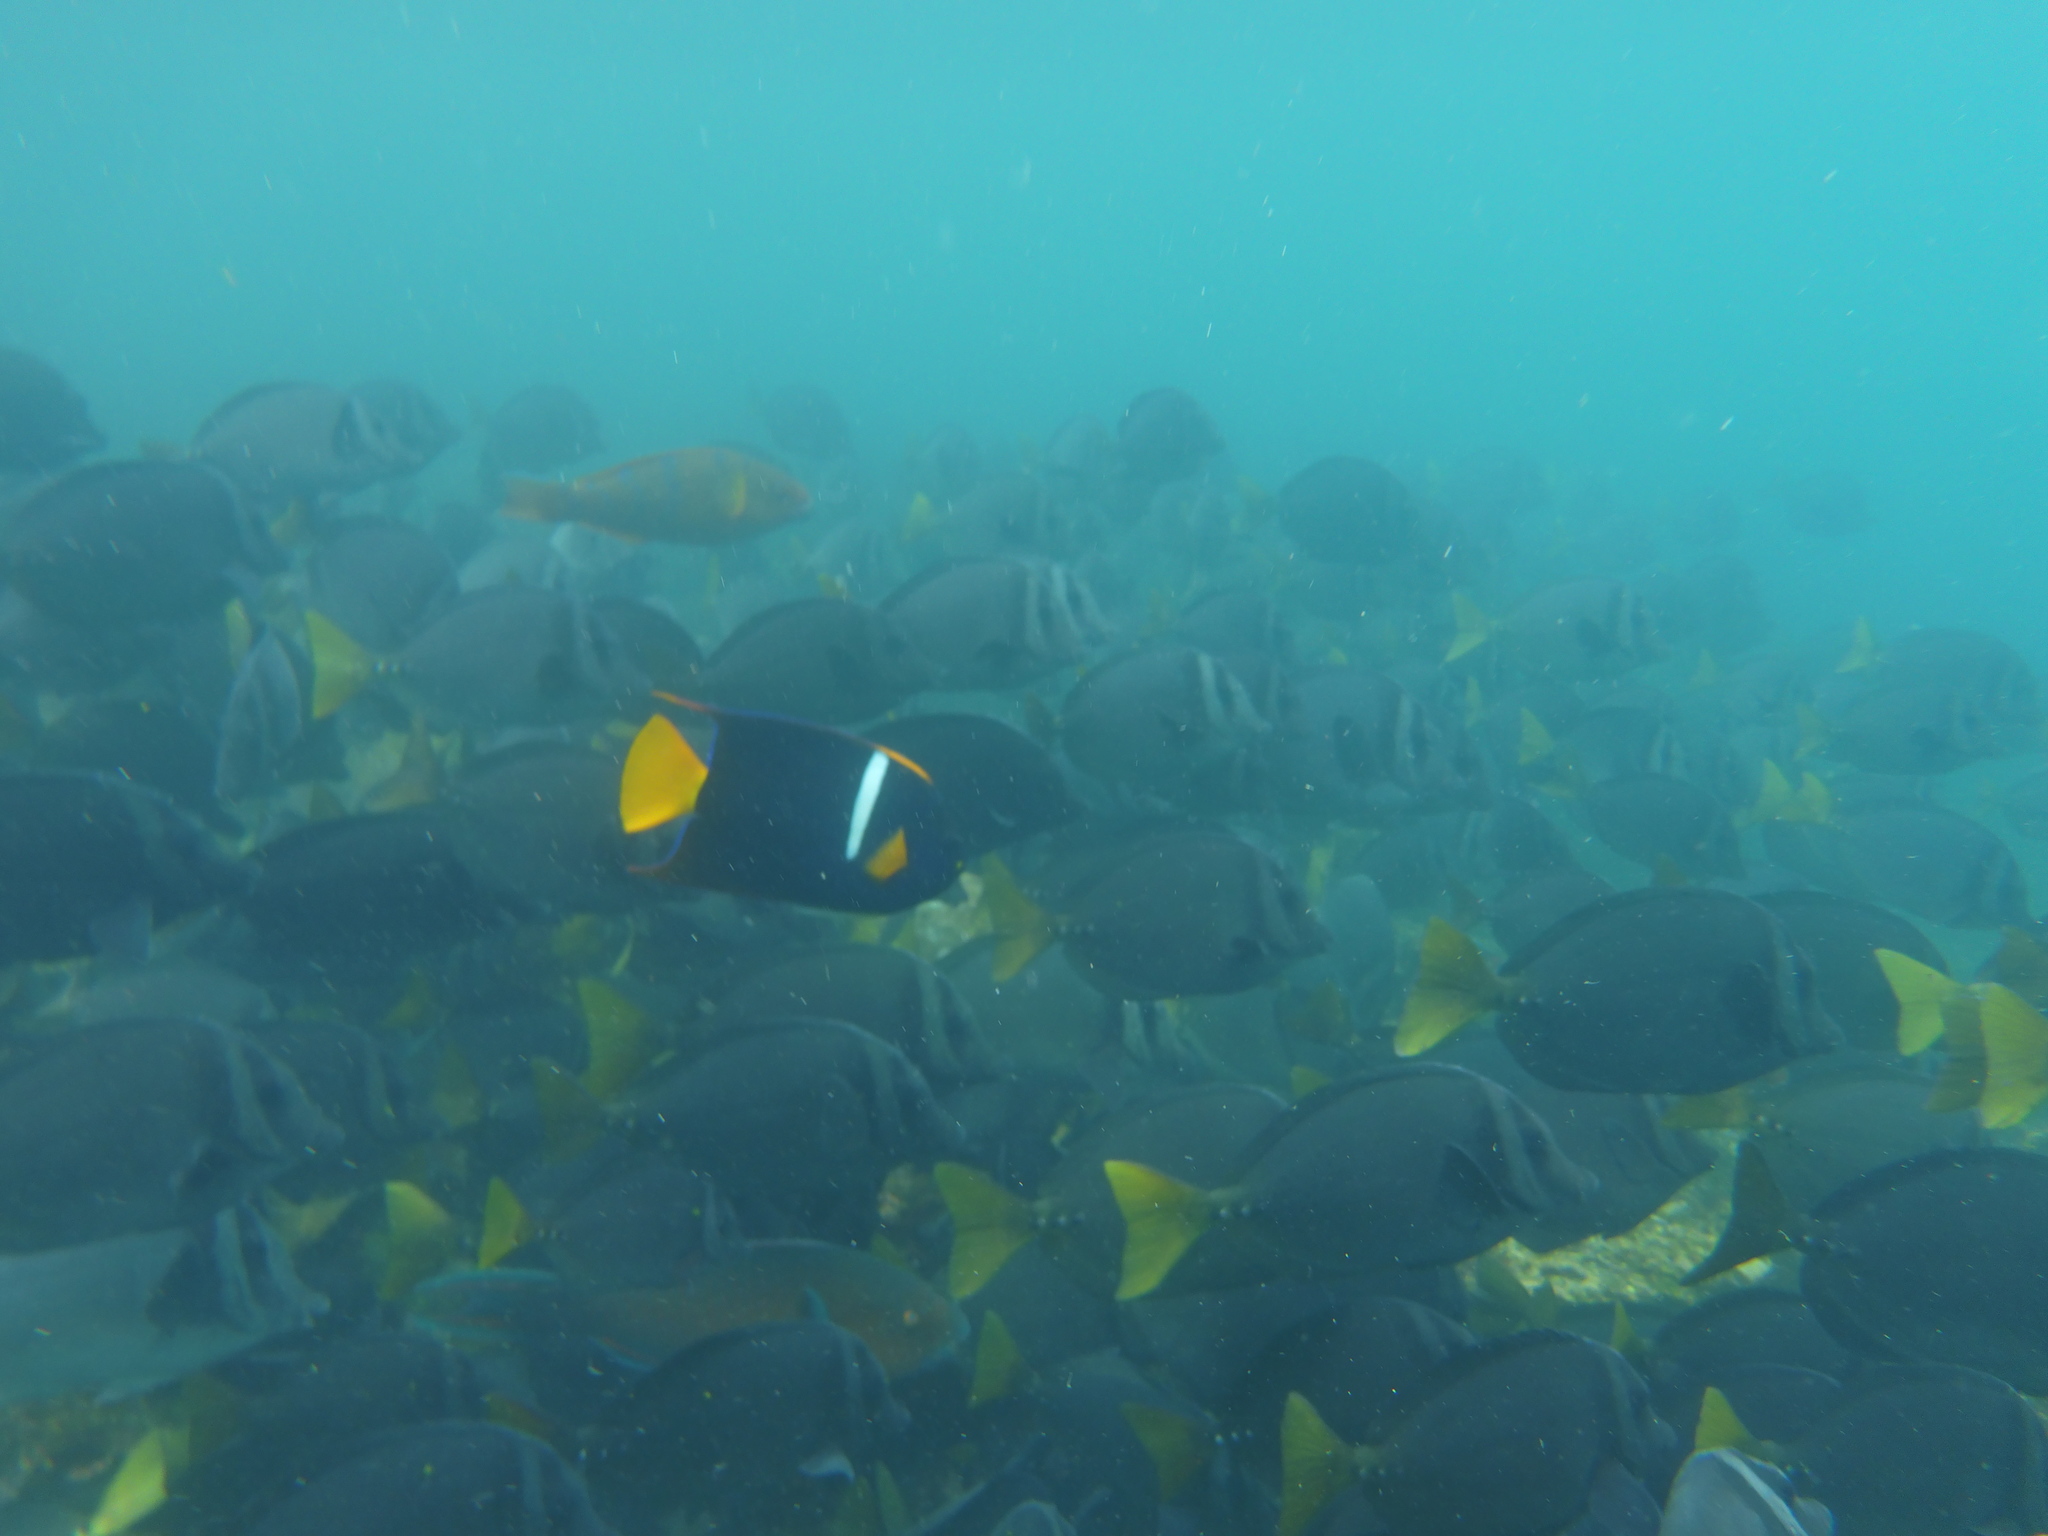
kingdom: Animalia
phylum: Chordata
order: Perciformes
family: Pomacanthidae
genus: Holacanthus
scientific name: Holacanthus passer
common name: King angelfish
